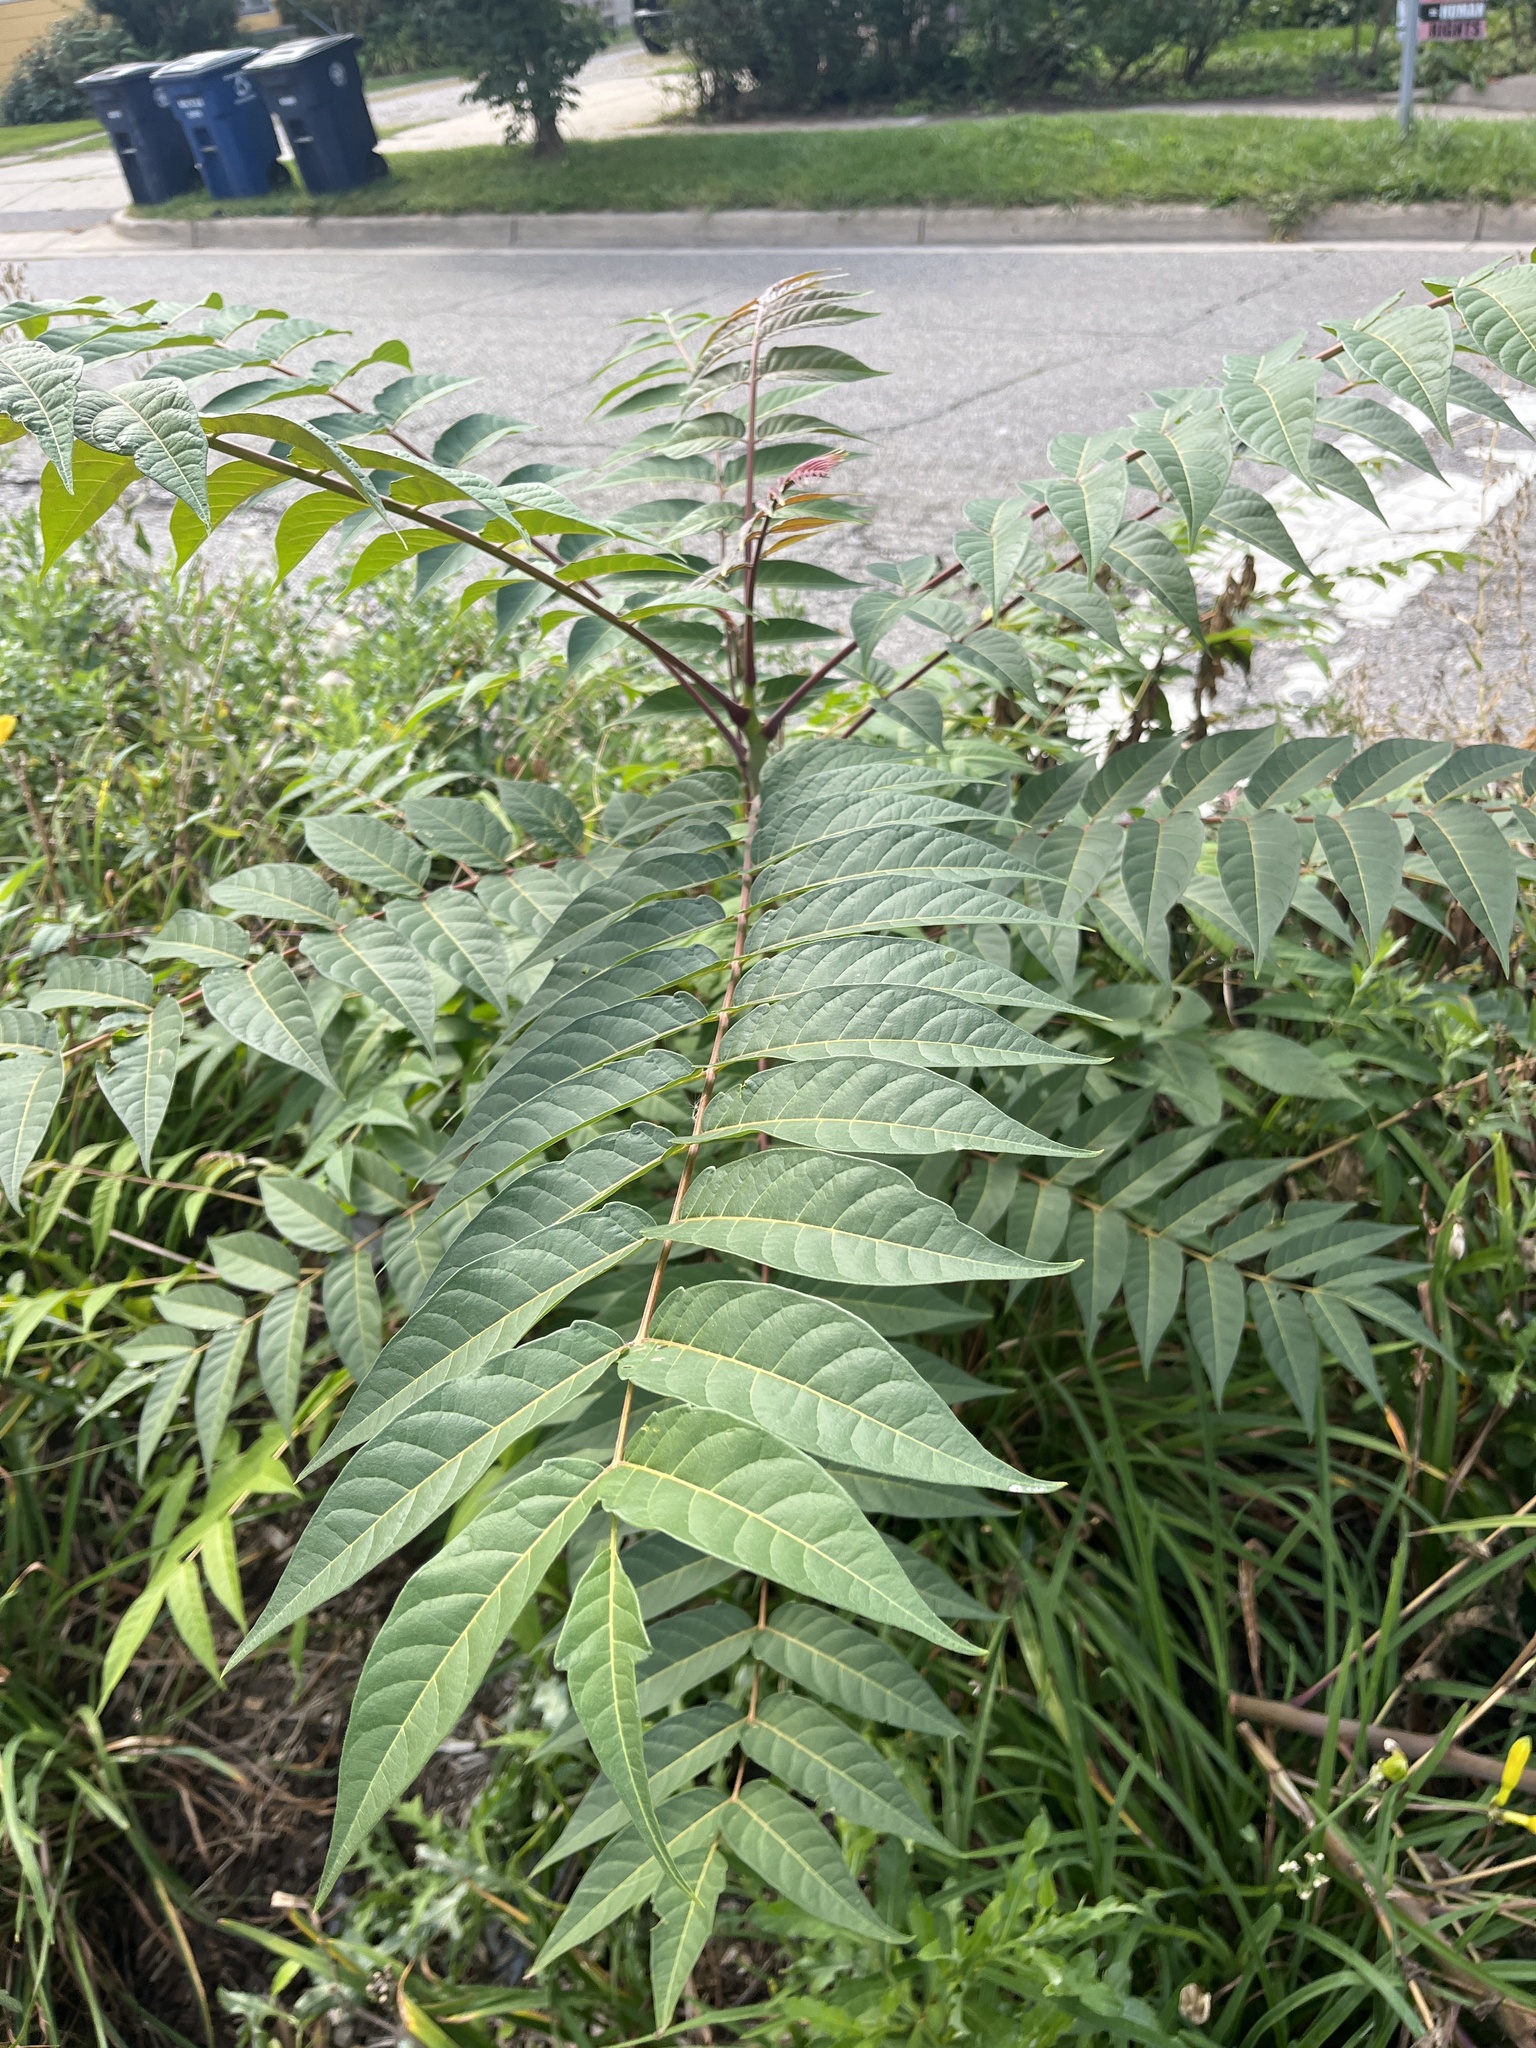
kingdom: Plantae
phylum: Tracheophyta
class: Magnoliopsida
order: Sapindales
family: Simaroubaceae
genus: Ailanthus
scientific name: Ailanthus altissima
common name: Tree-of-heaven
